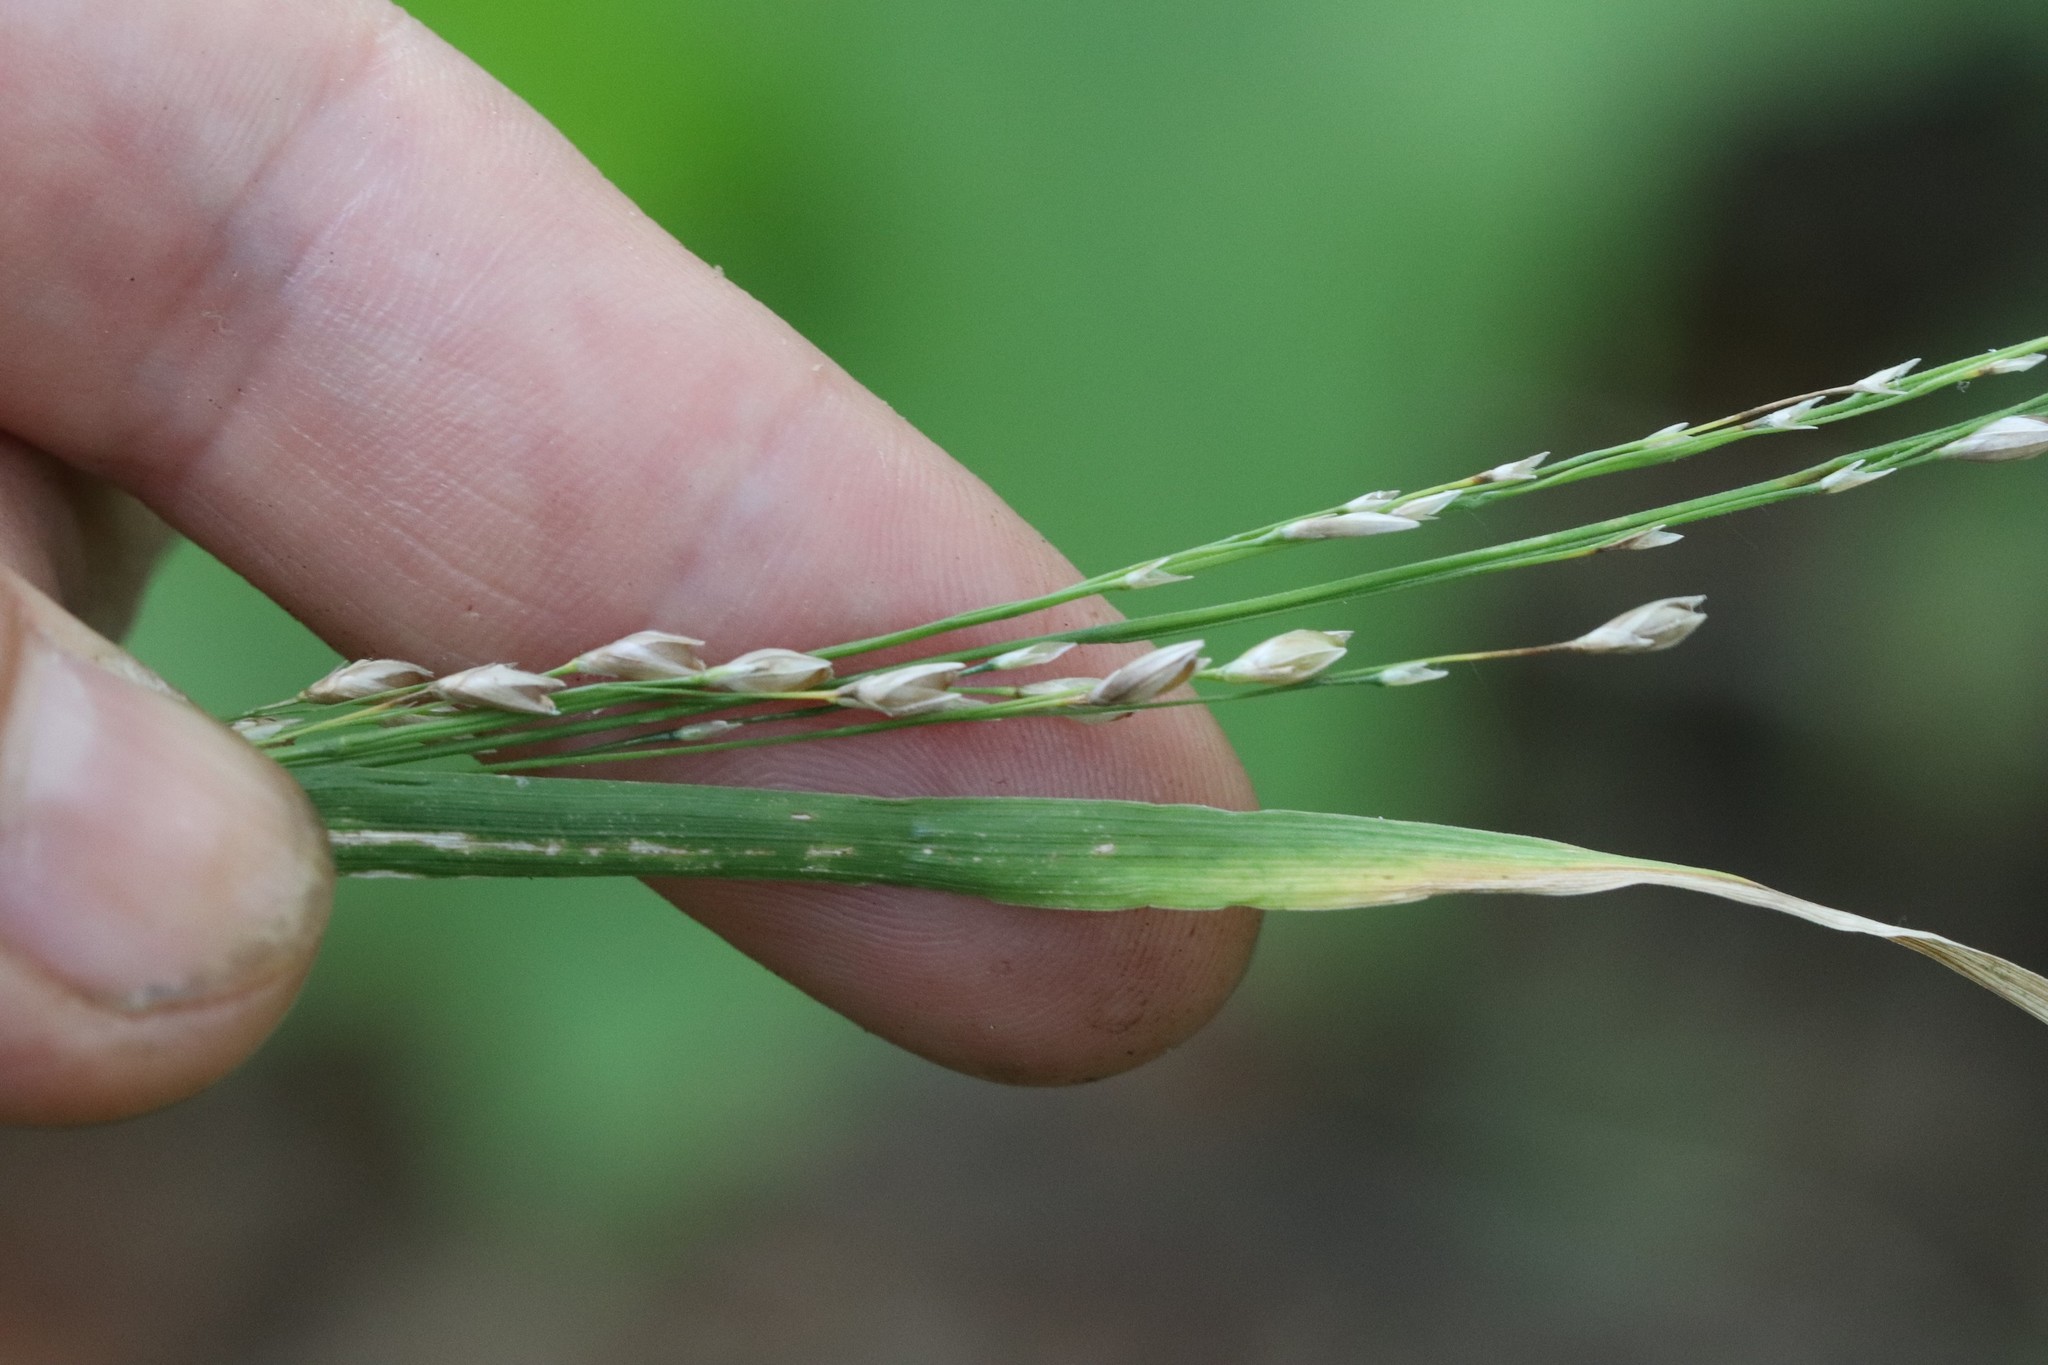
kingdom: Plantae
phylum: Tracheophyta
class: Liliopsida
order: Poales
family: Poaceae
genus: Diarrhena
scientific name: Diarrhena mandshurica
